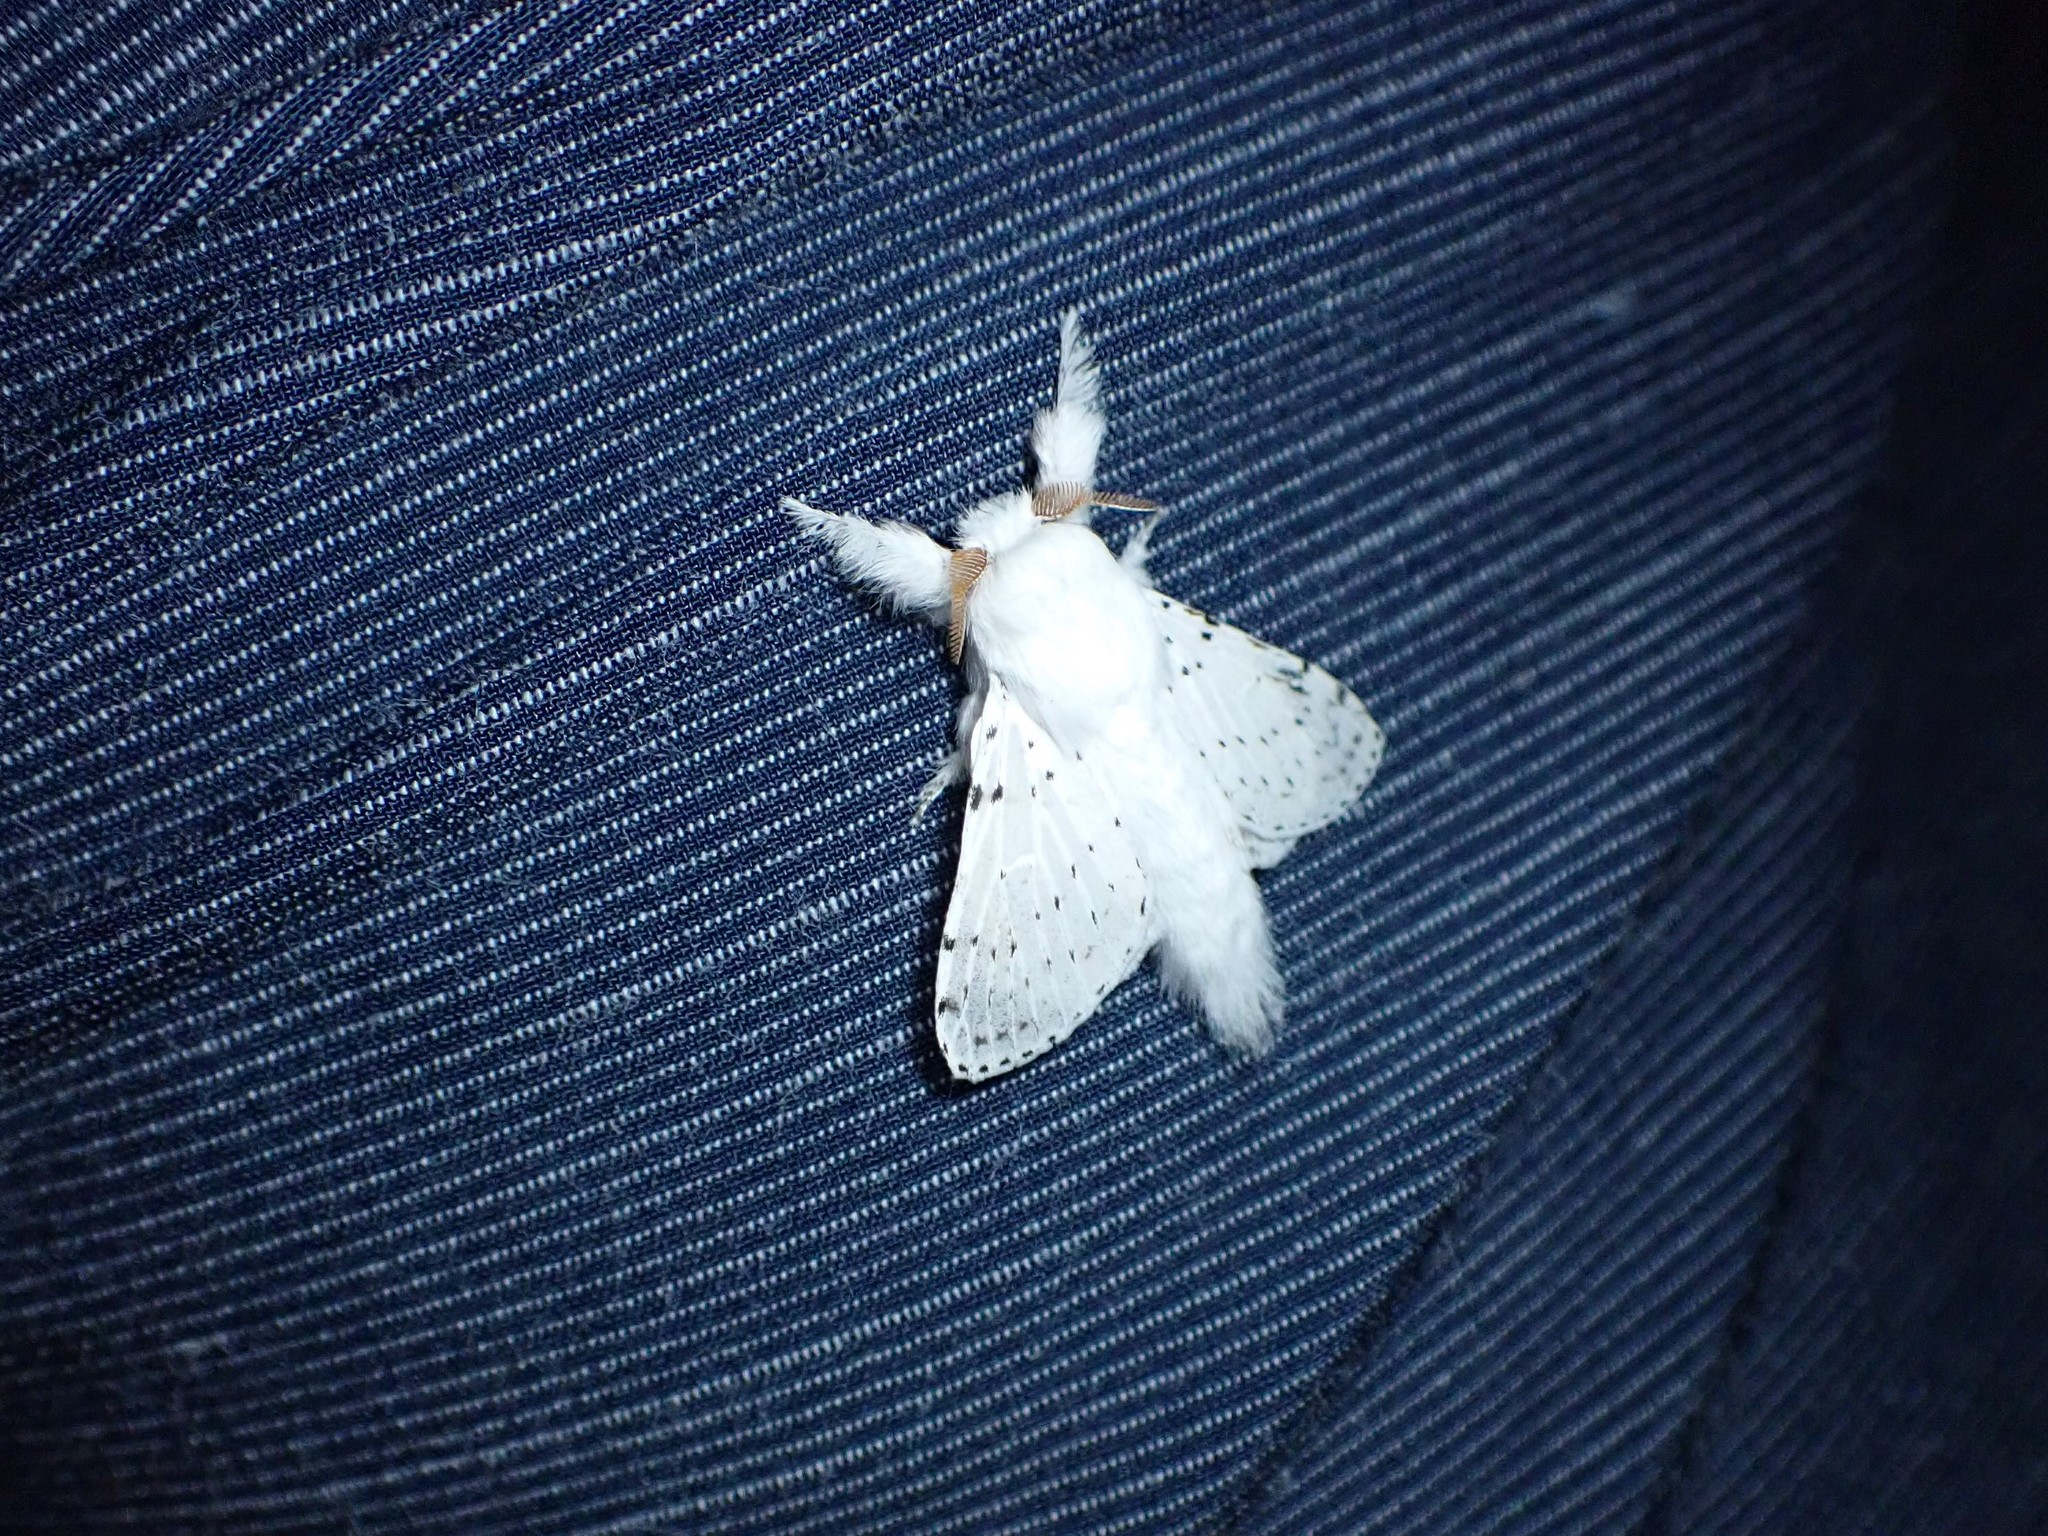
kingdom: Animalia
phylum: Arthropoda
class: Insecta
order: Lepidoptera
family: Lasiocampidae
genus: Artace
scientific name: Artace cribrarius
